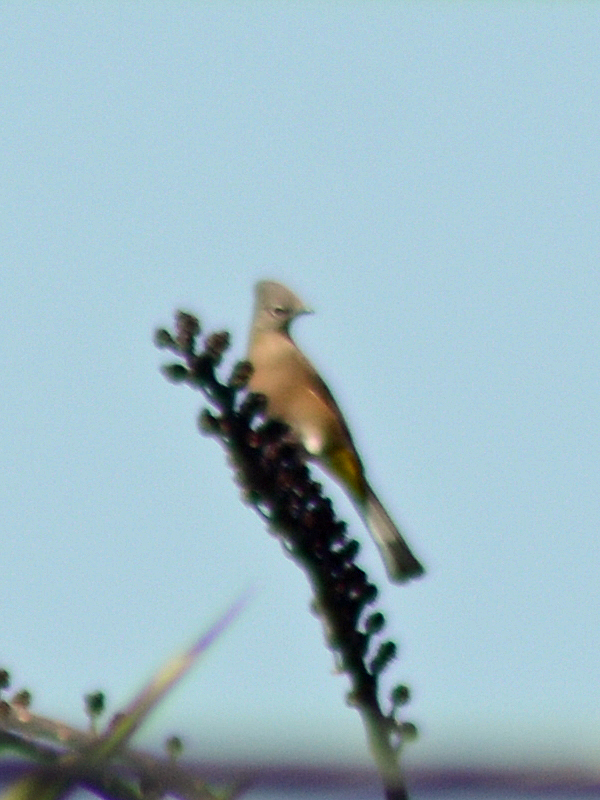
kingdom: Animalia
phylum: Chordata
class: Aves
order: Passeriformes
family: Ptilogonatidae
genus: Ptilogonys
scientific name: Ptilogonys cinereus
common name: Gray silky-flycatcher
